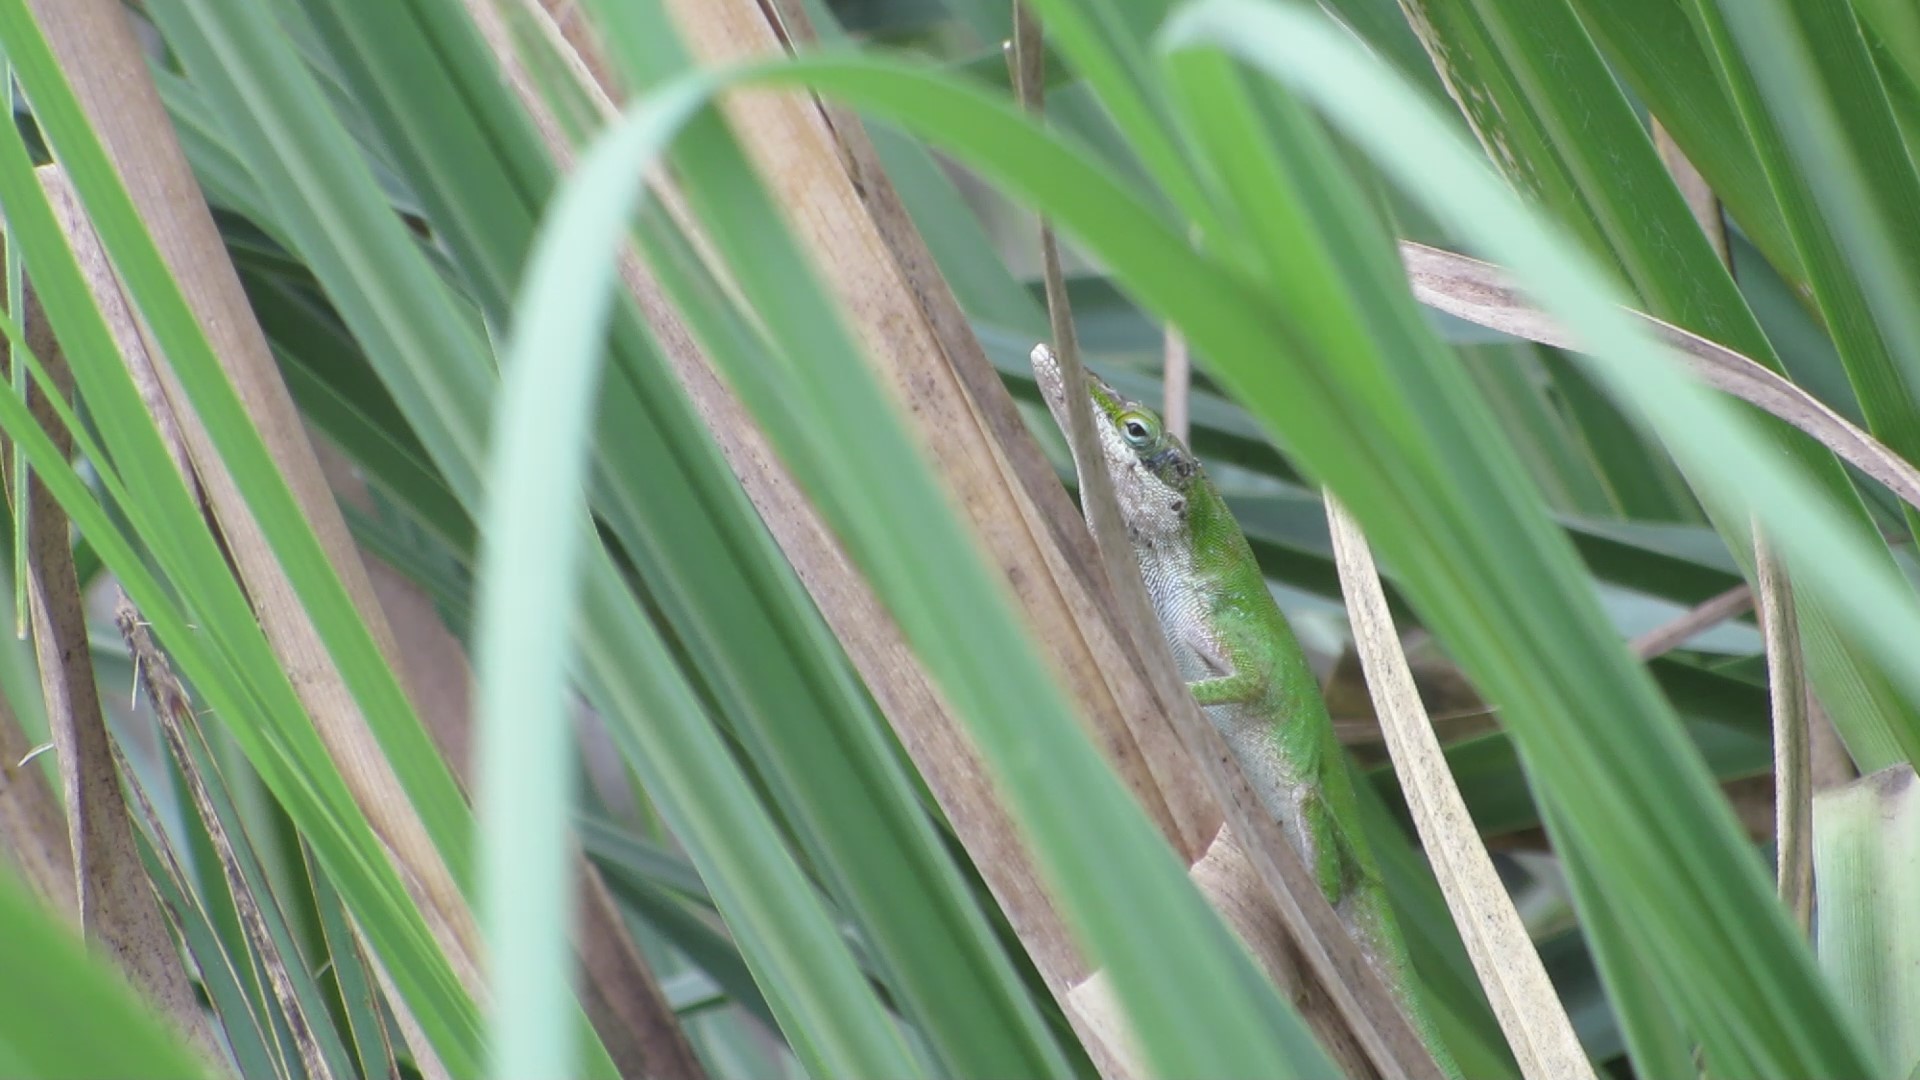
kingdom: Animalia
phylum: Chordata
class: Squamata
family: Dactyloidae
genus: Anolis
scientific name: Anolis carolinensis
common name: Green anole
